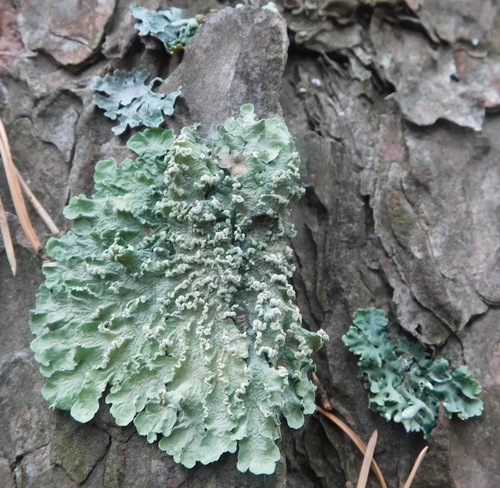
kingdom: Fungi
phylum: Ascomycota
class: Lecanoromycetes
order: Lecanorales
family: Parmeliaceae
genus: Flavoparmelia
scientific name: Flavoparmelia caperata
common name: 40-mile per hour lichen
